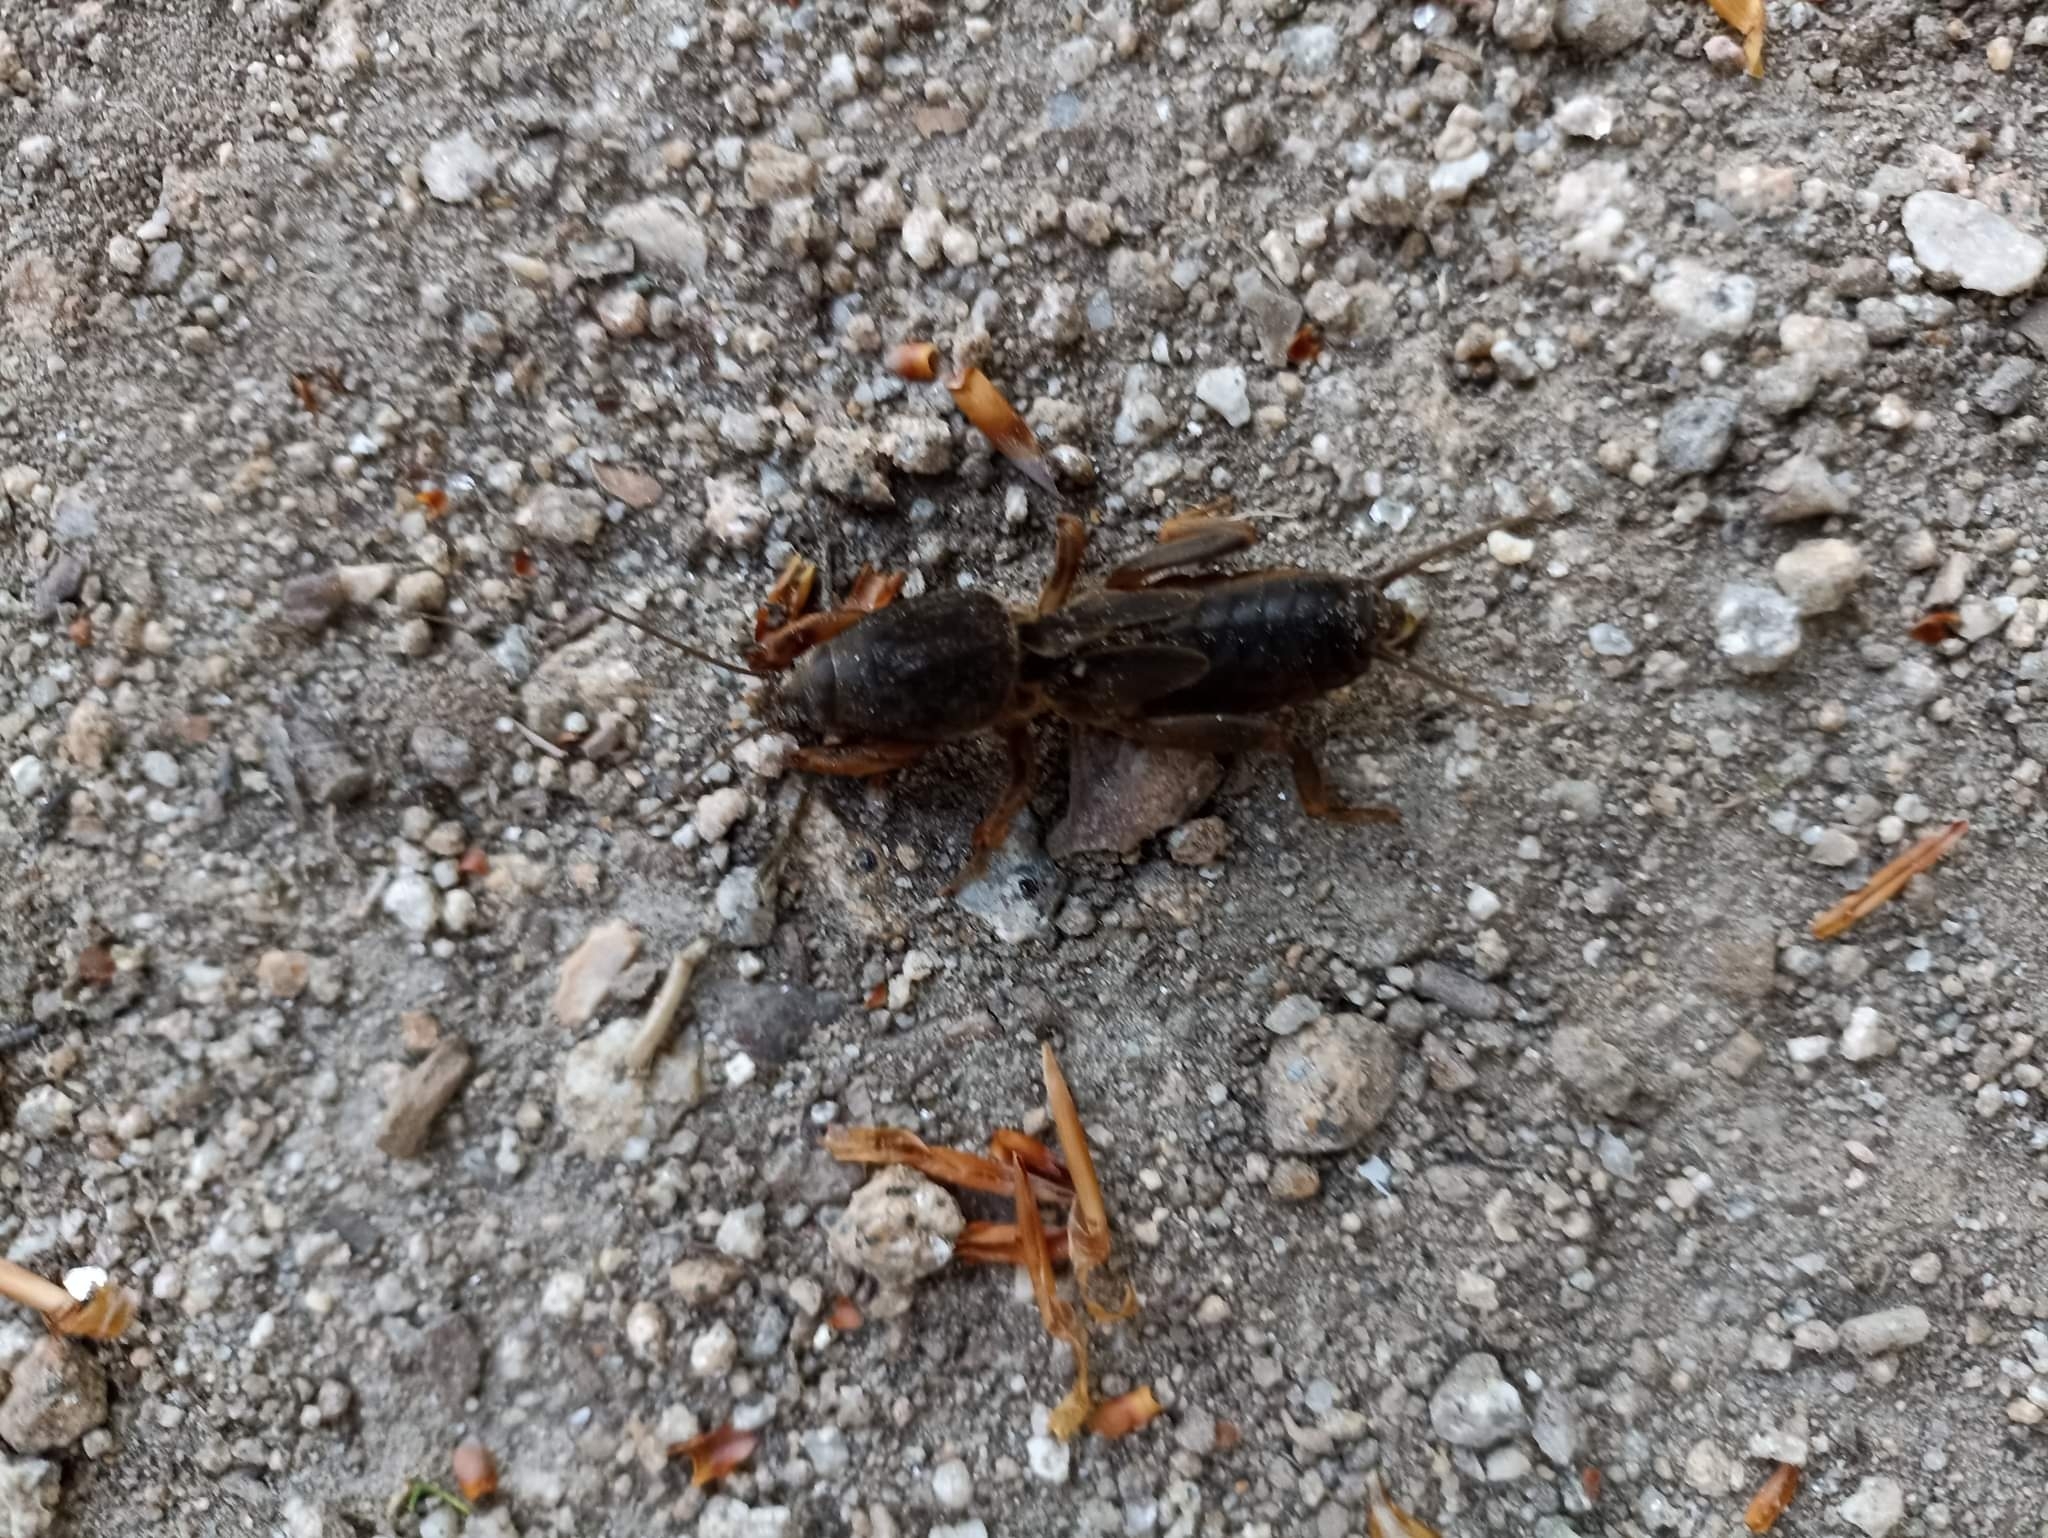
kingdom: Animalia
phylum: Arthropoda
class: Insecta
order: Orthoptera
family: Gryllotalpidae
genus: Gryllotalpa
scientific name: Gryllotalpa gryllotalpa
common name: European mole cricket
